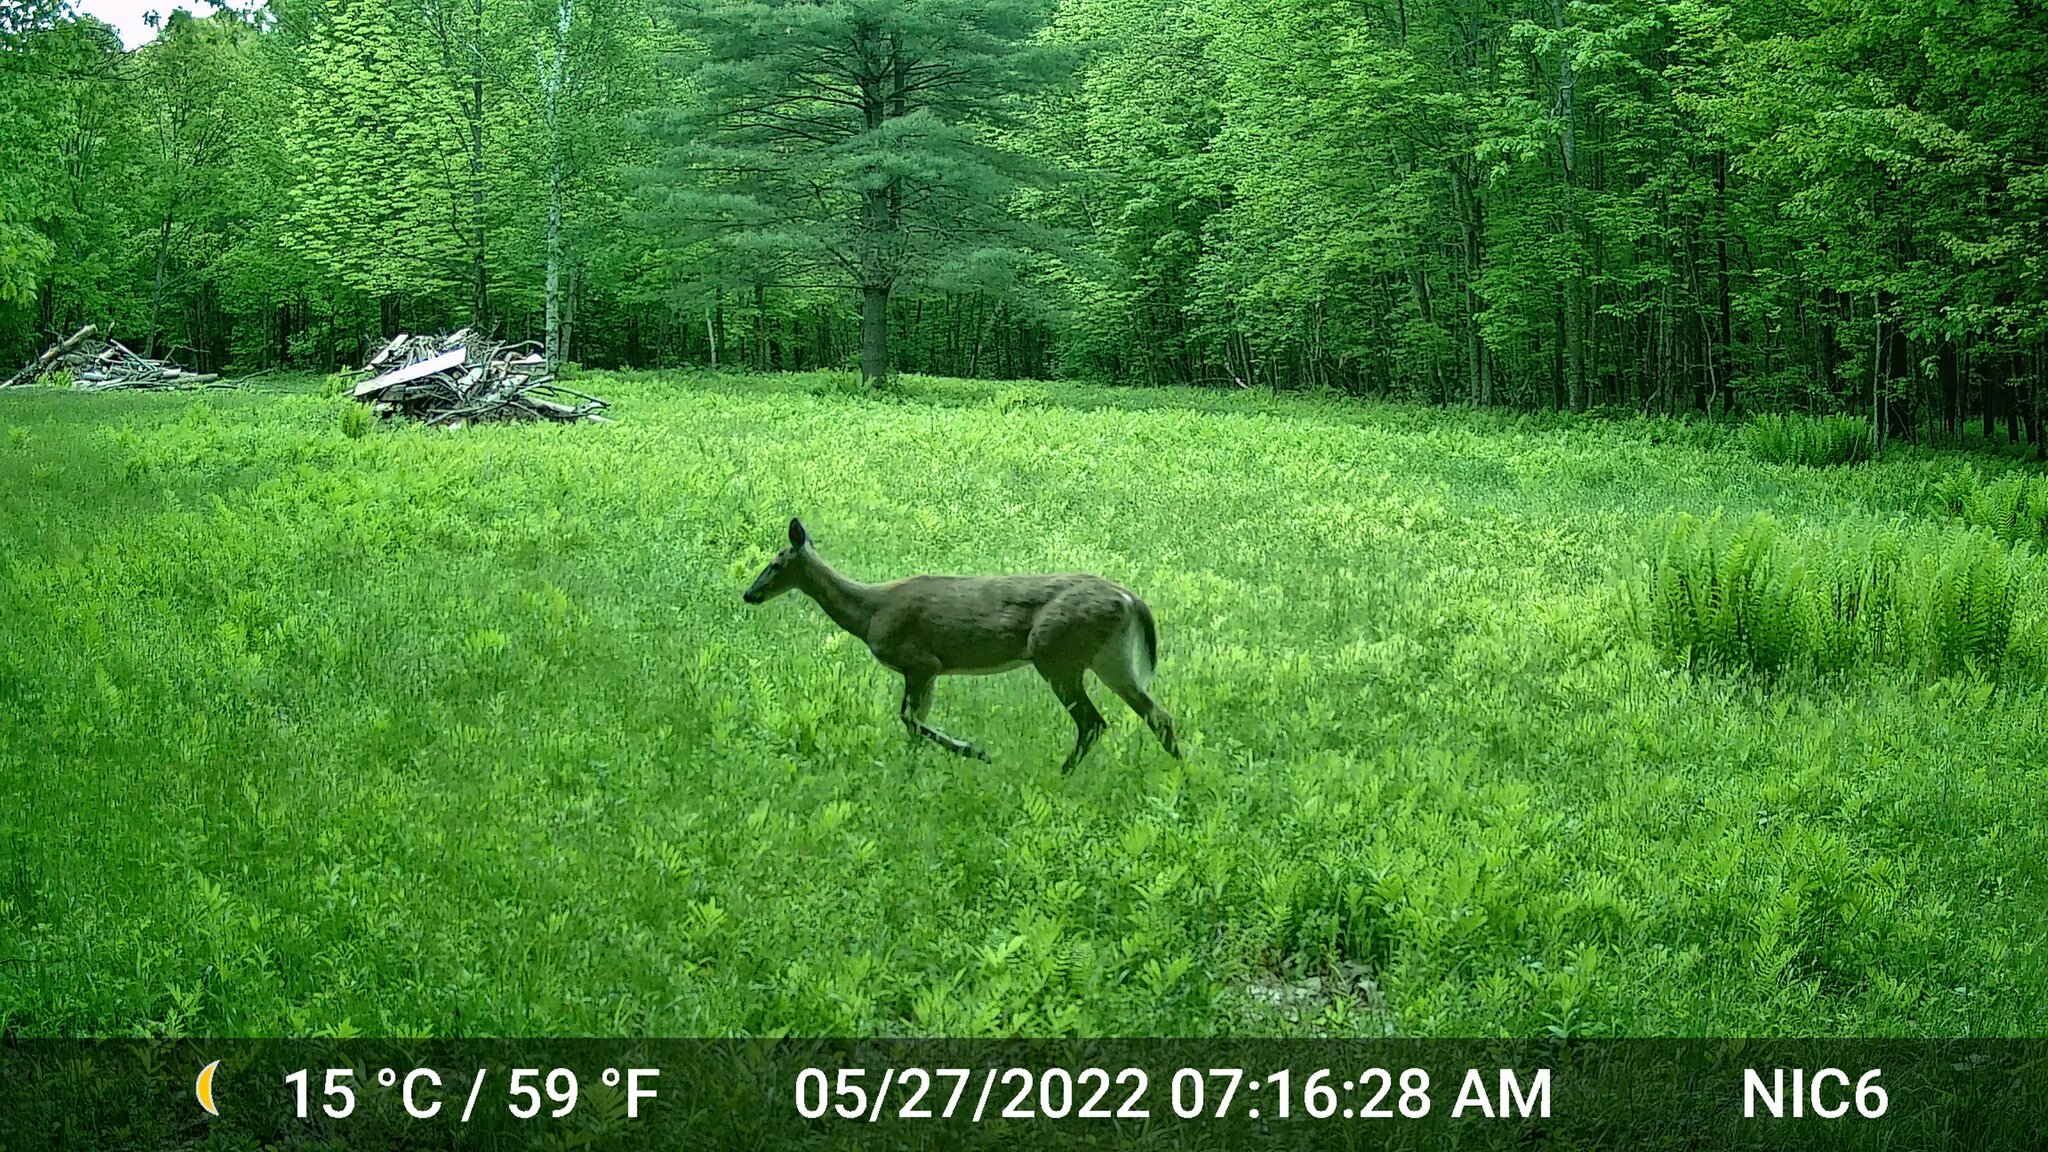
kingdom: Animalia
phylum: Chordata
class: Mammalia
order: Artiodactyla
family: Cervidae
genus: Odocoileus
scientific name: Odocoileus virginianus
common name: White-tailed deer
